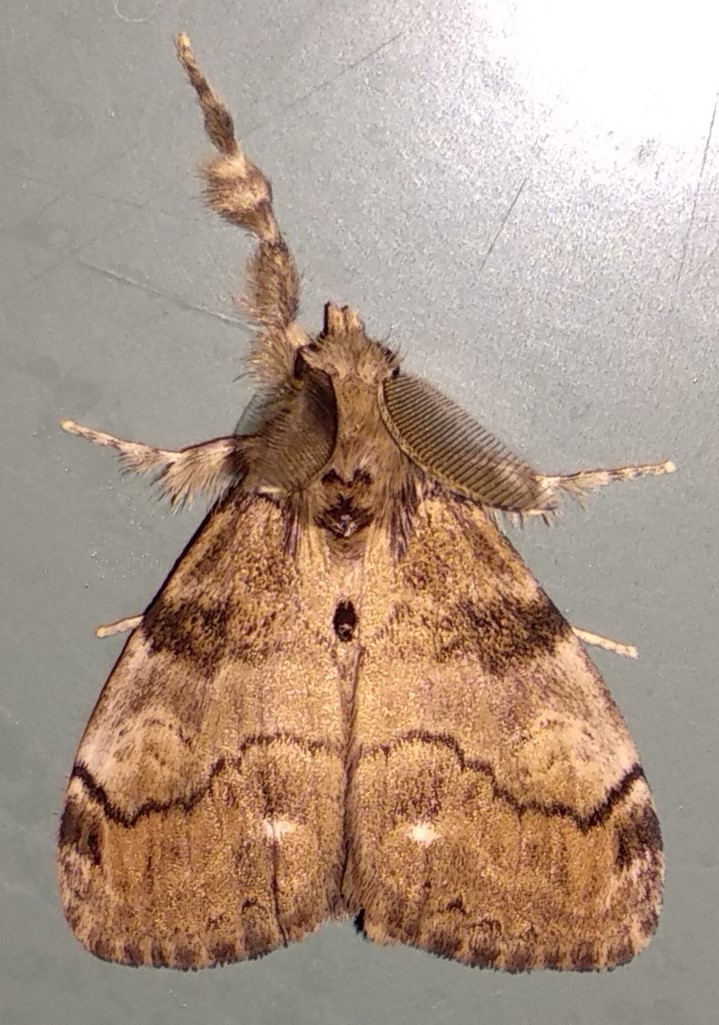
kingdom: Animalia
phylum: Arthropoda
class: Insecta
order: Lepidoptera
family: Erebidae
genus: Orgyia
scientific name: Orgyia leucostigma
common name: White-marked tussock moth
